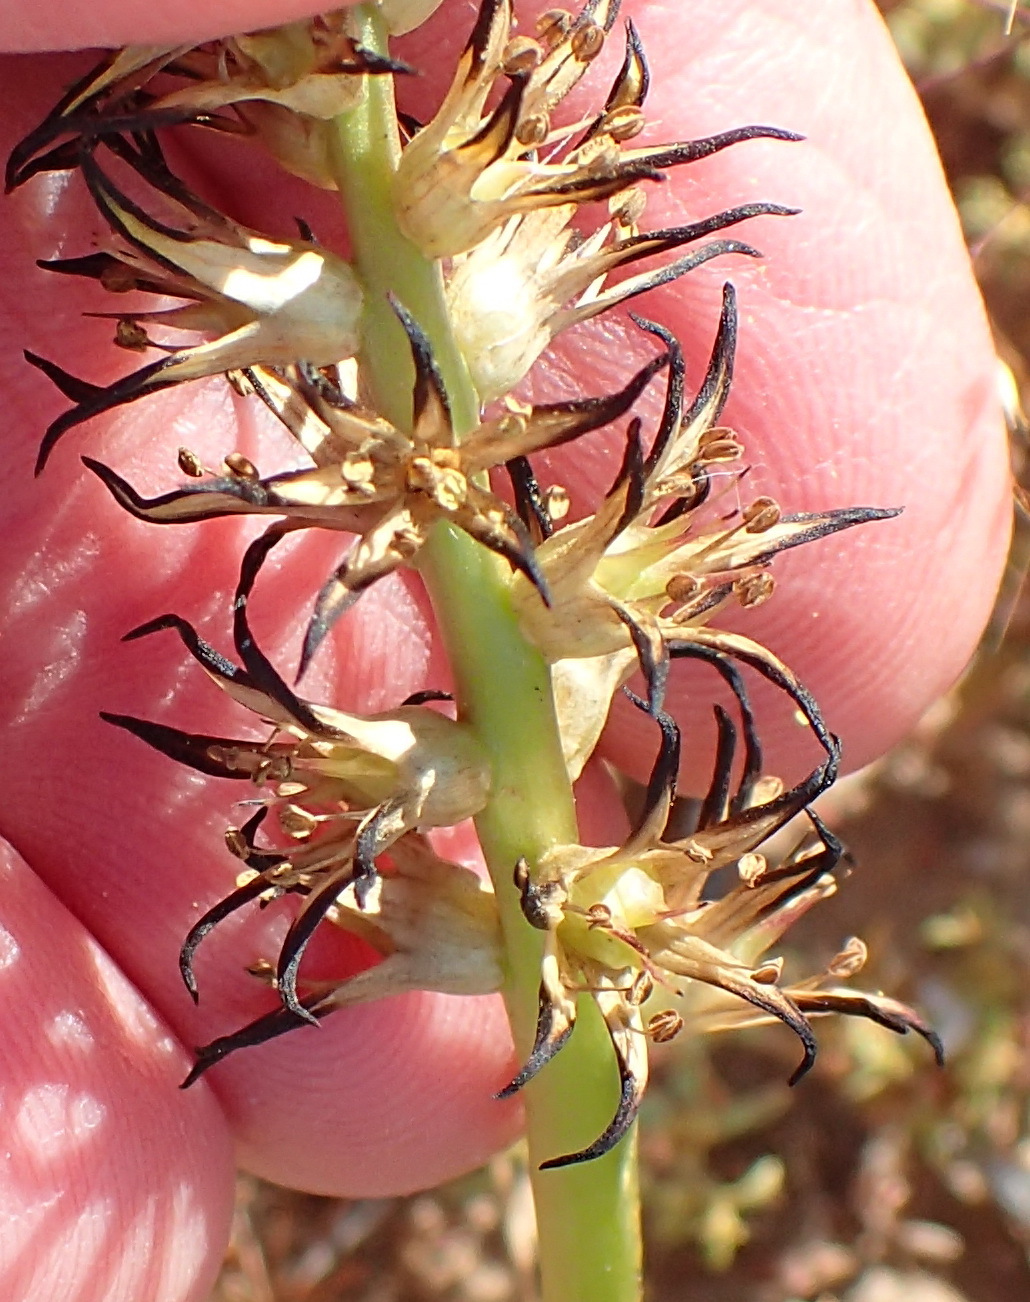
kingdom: Plantae
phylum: Tracheophyta
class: Liliopsida
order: Liliales
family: Colchicaceae
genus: Wurmbea
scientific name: Wurmbea spicata
